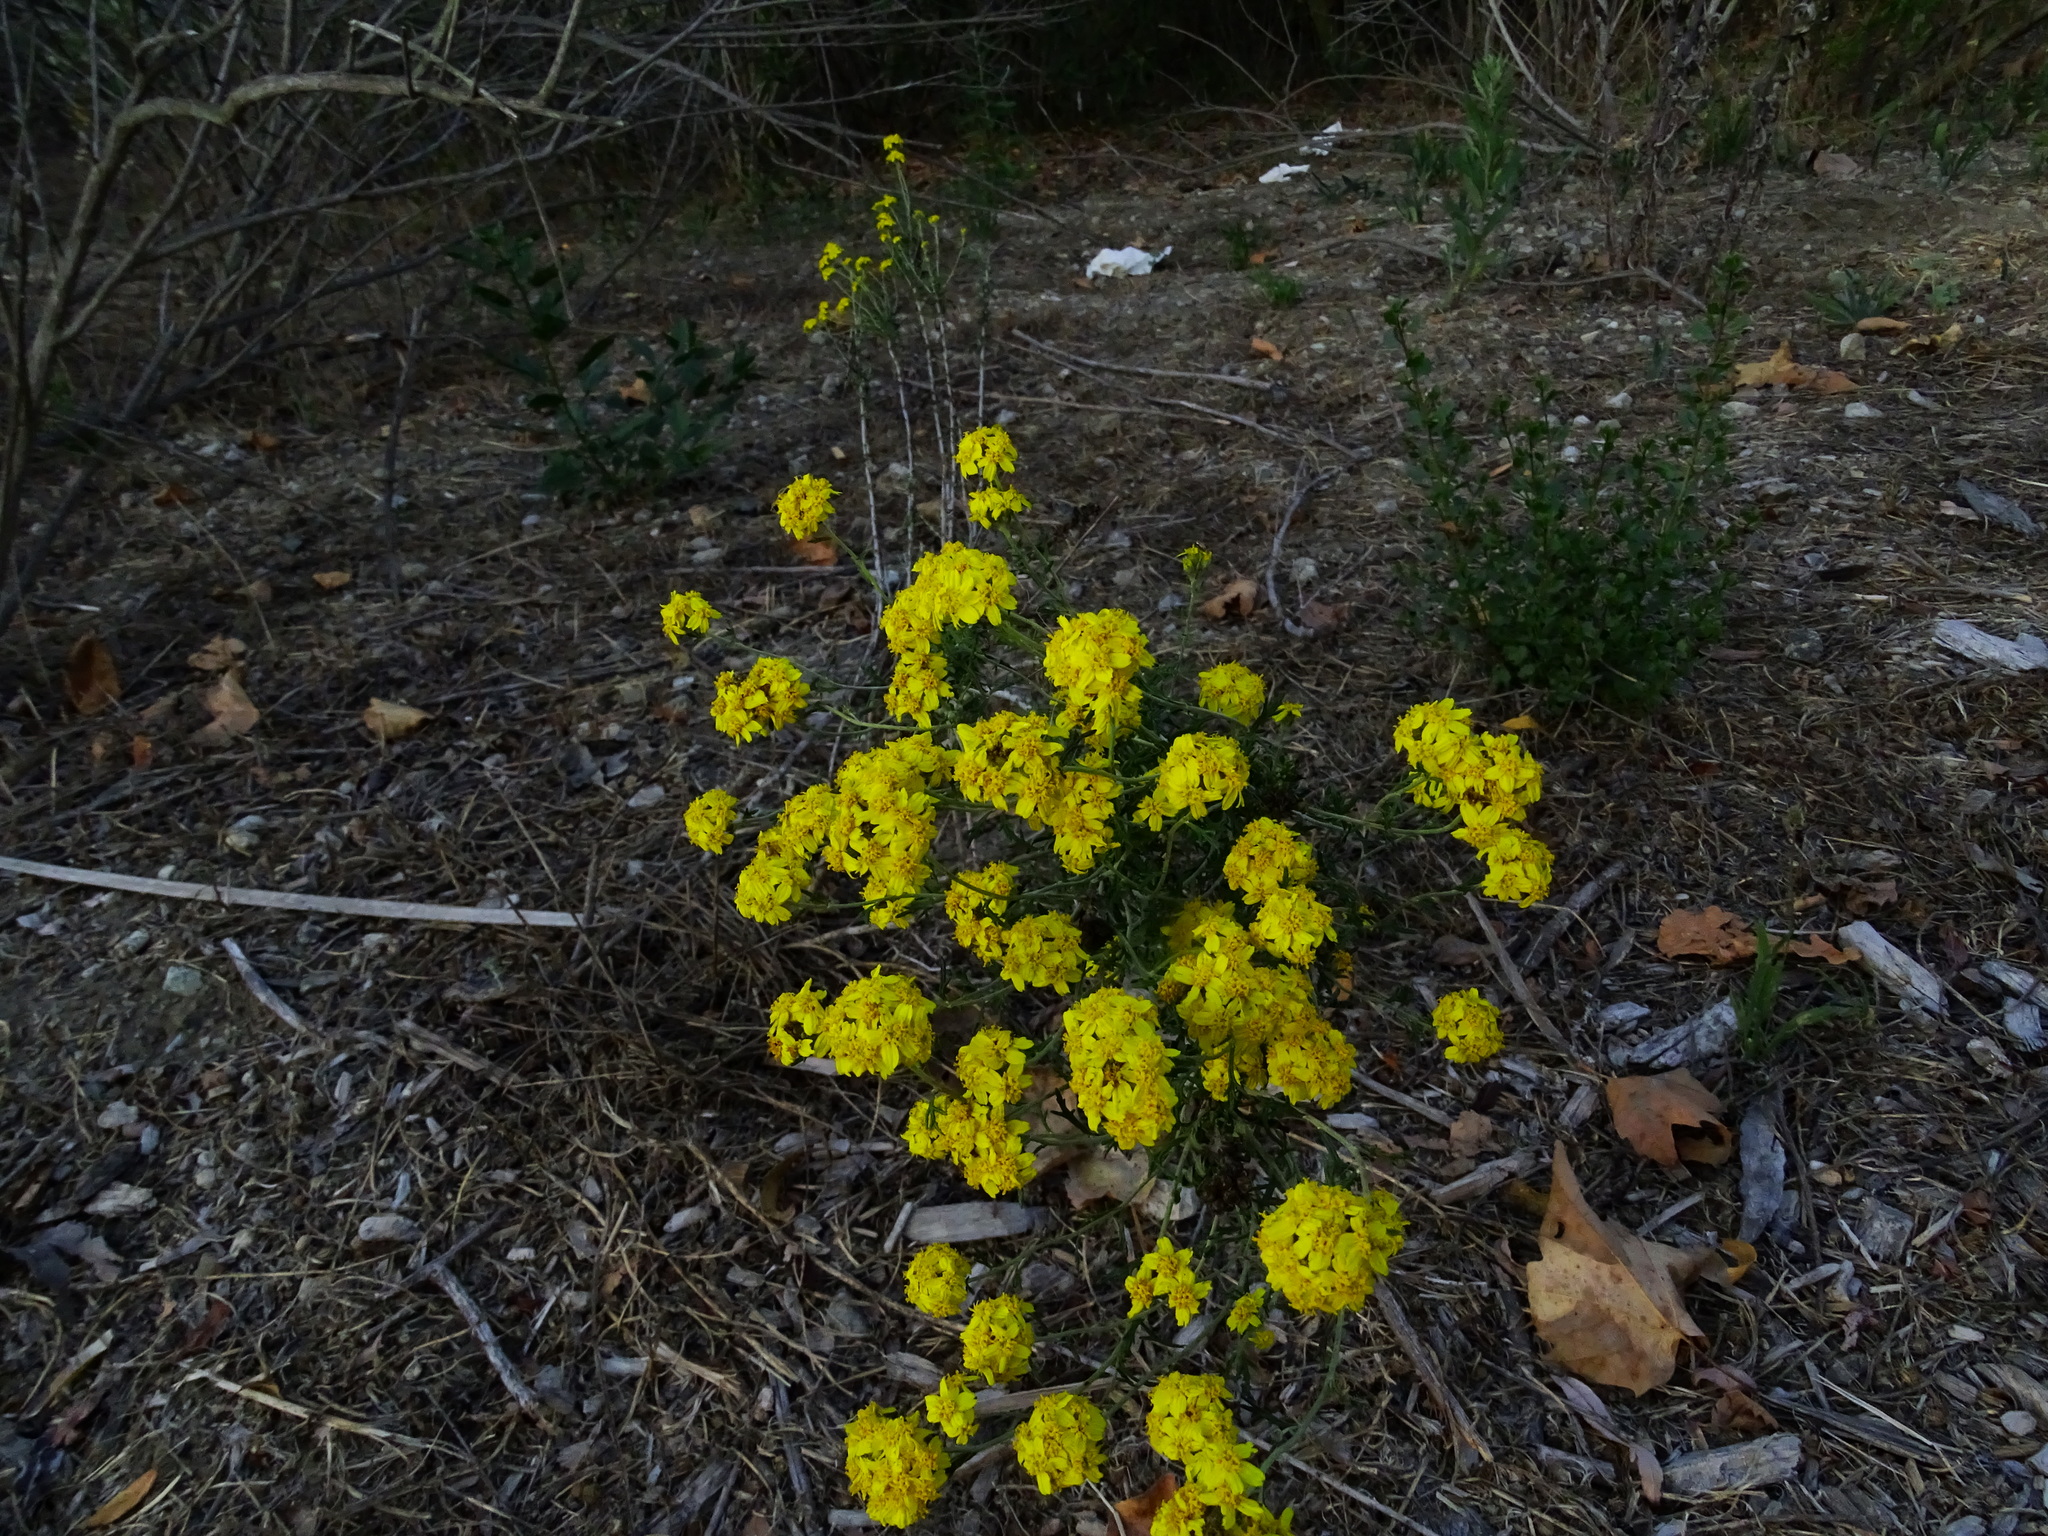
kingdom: Plantae
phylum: Tracheophyta
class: Magnoliopsida
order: Asterales
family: Asteraceae
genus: Eriophyllum
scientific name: Eriophyllum confertiflorum
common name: Golden-yarrow
